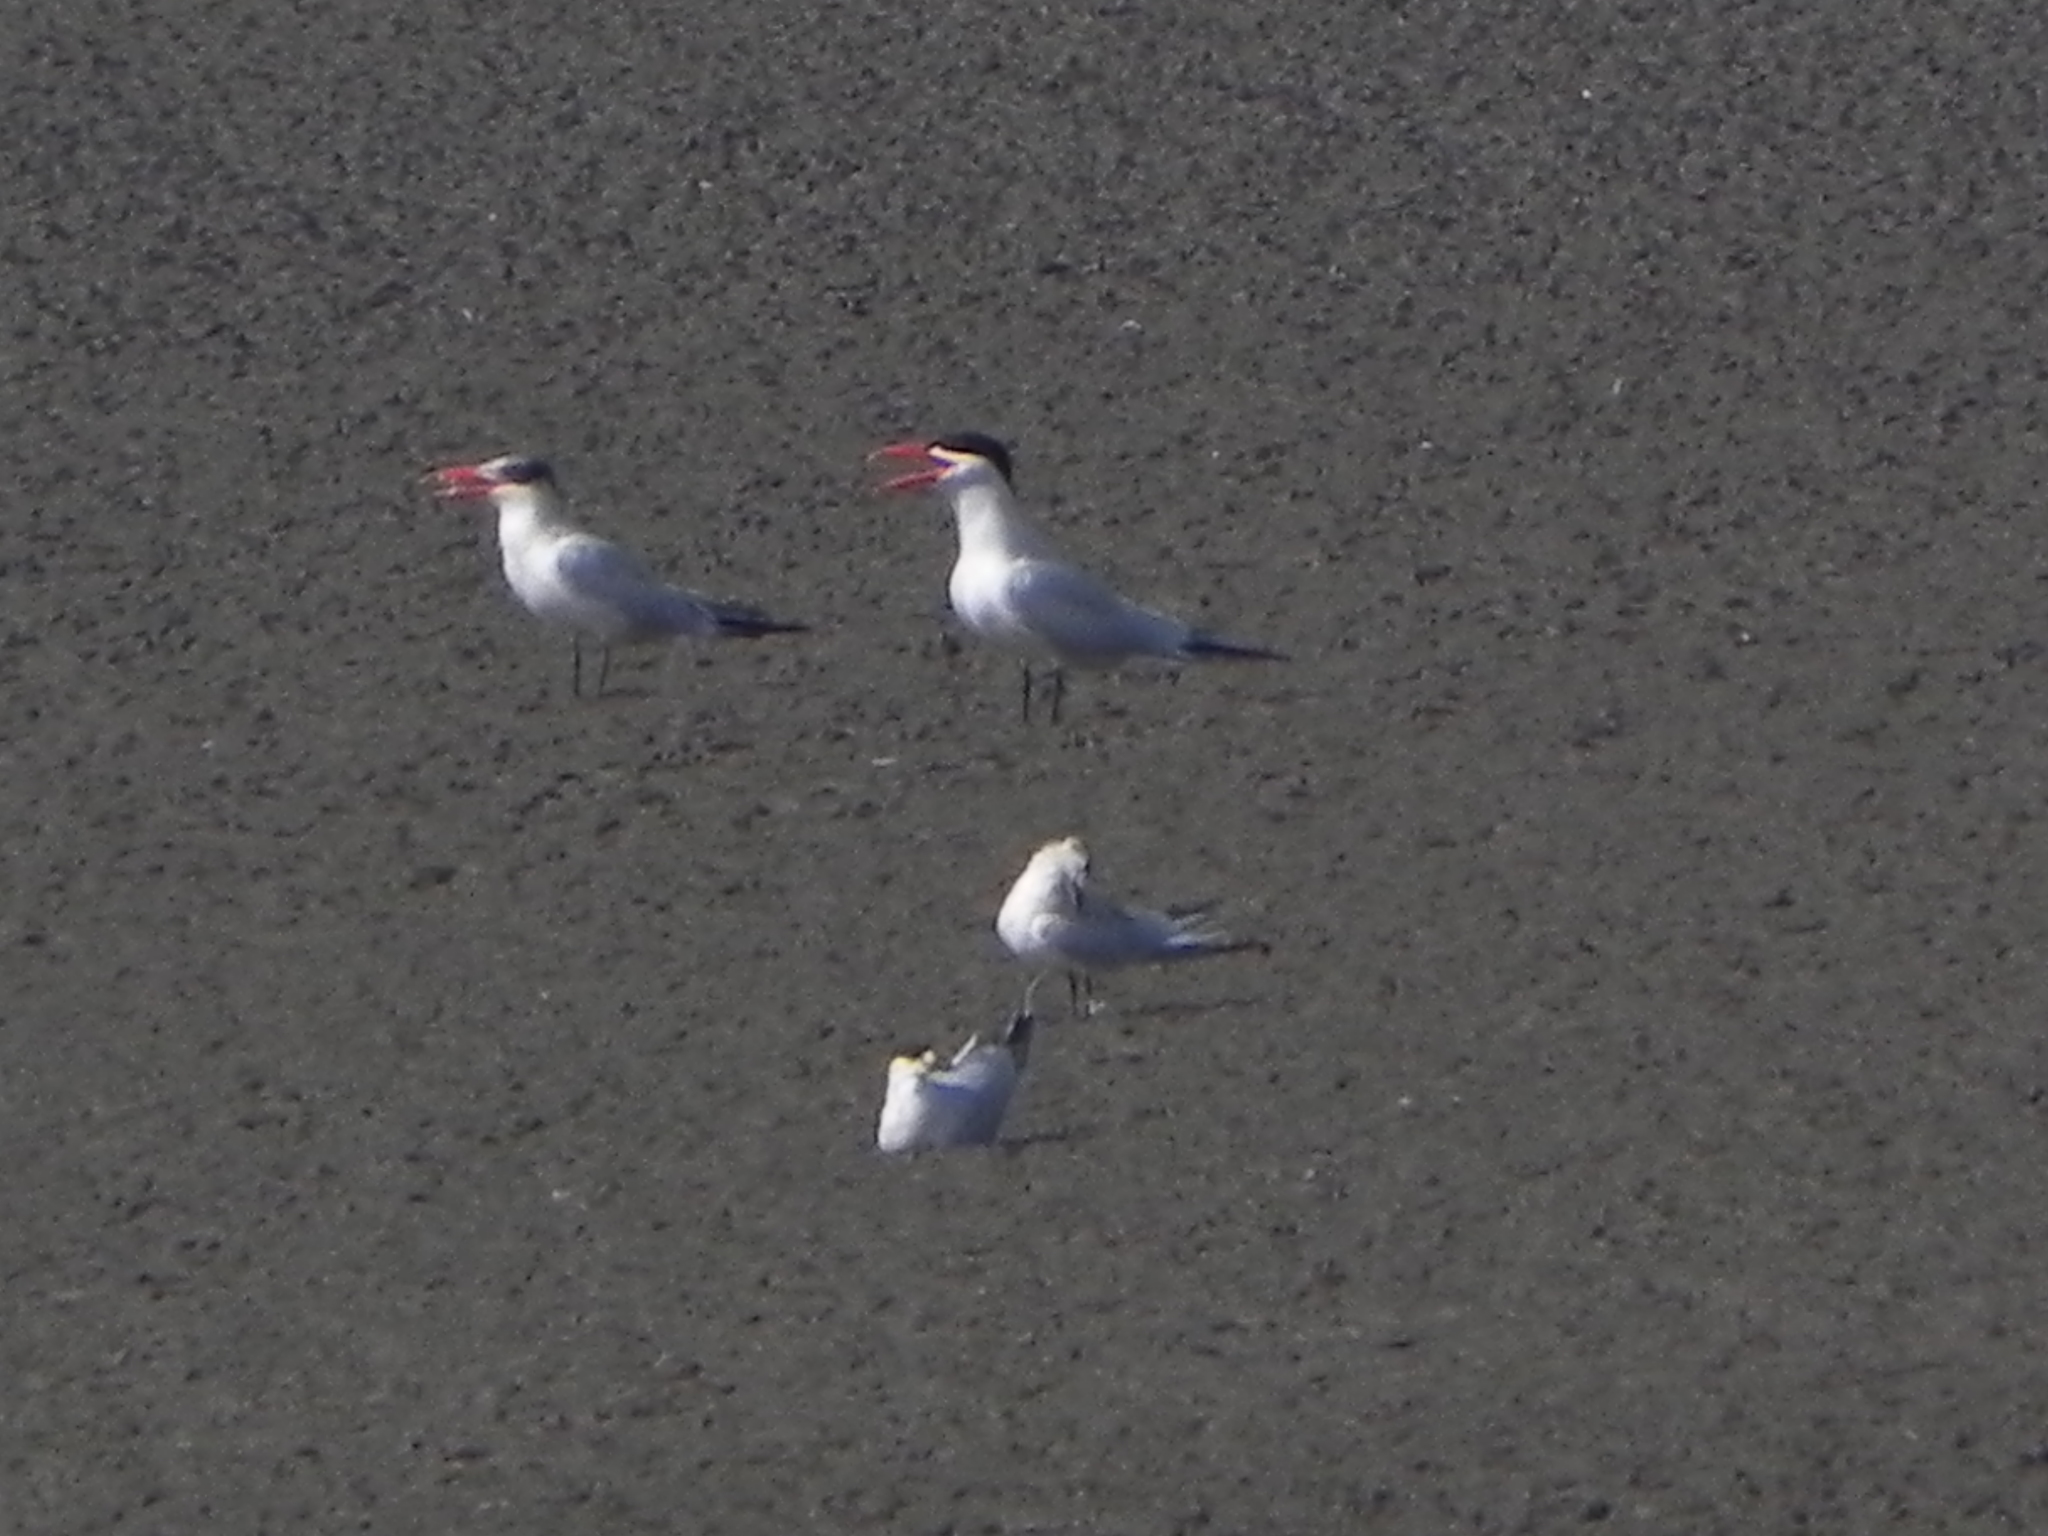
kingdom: Animalia
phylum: Chordata
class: Aves
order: Charadriiformes
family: Laridae
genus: Hydroprogne
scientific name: Hydroprogne caspia
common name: Caspian tern
